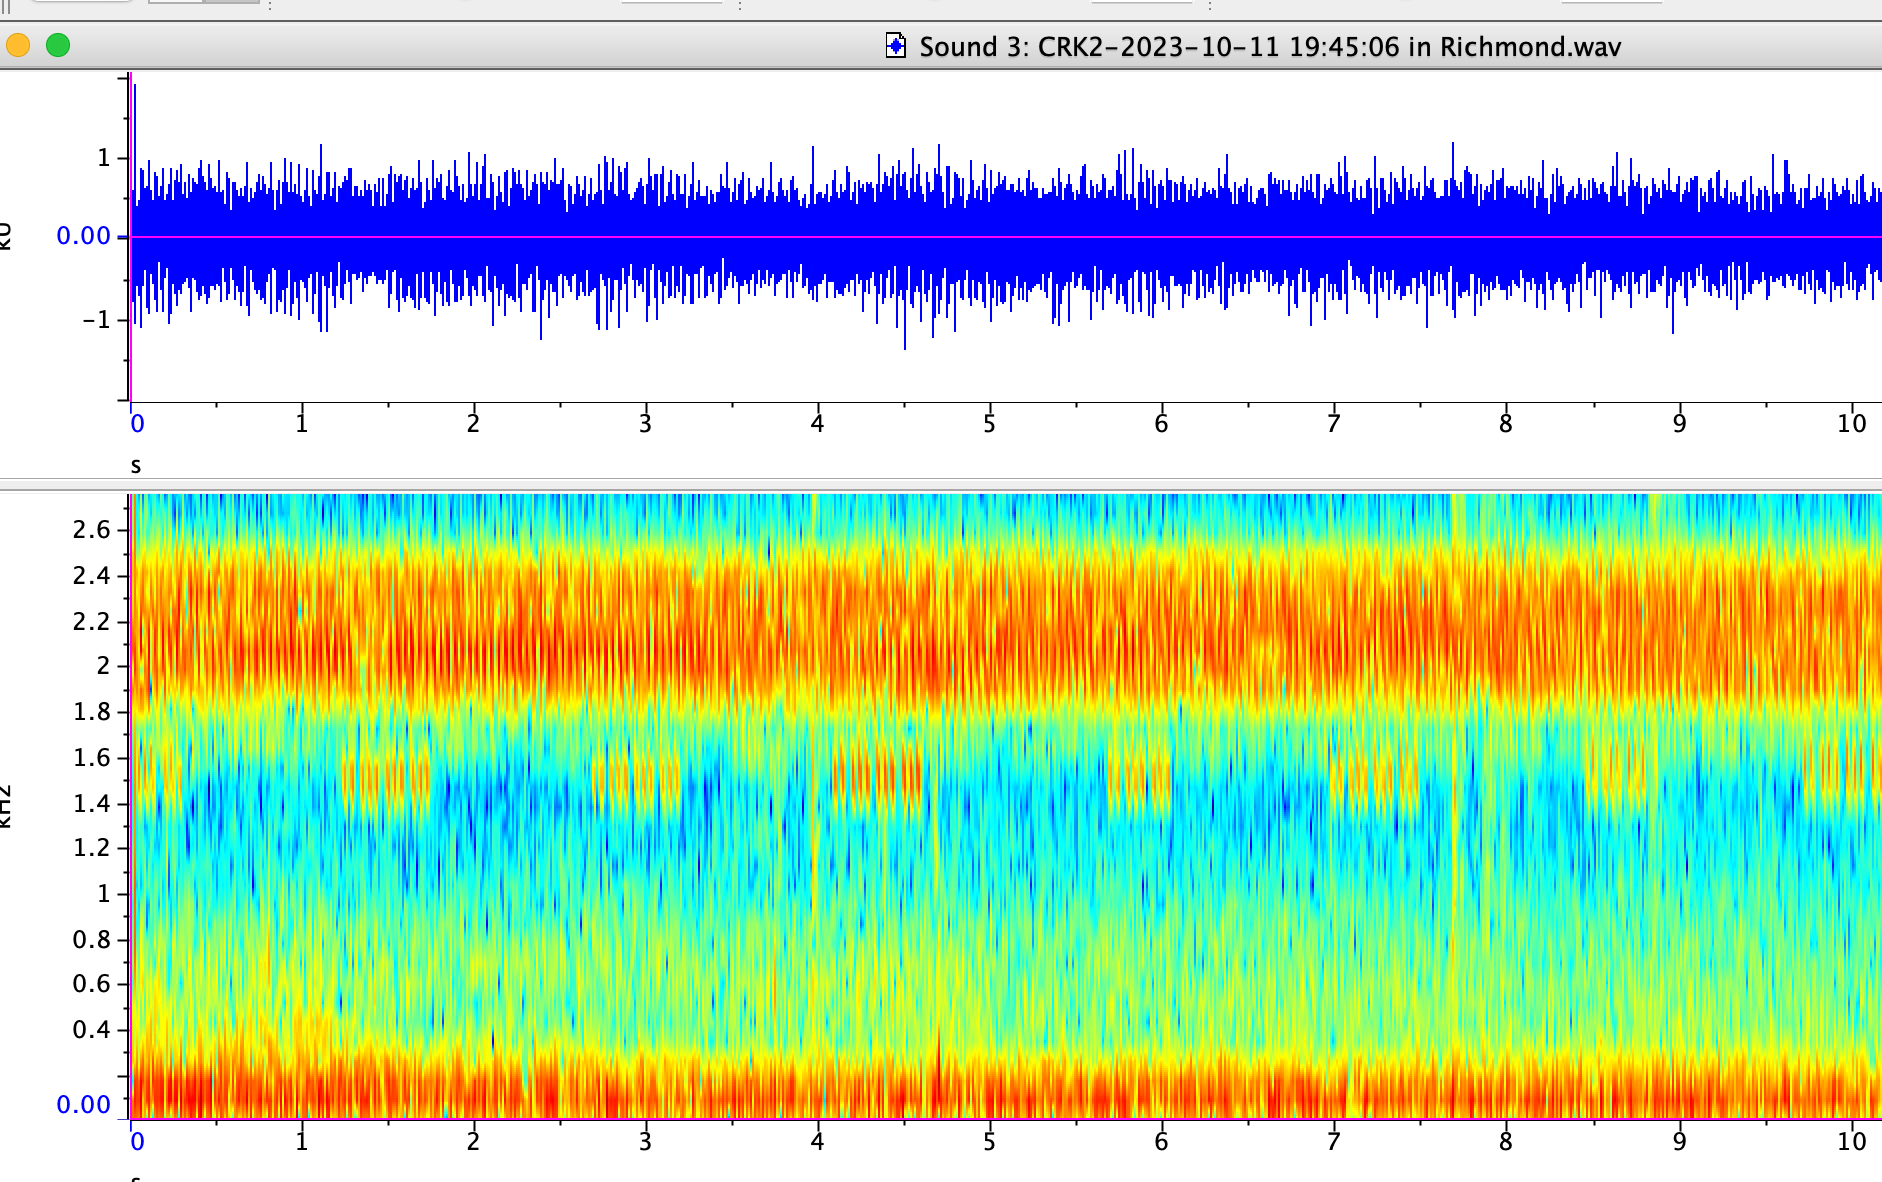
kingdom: Animalia
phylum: Arthropoda
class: Insecta
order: Orthoptera
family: Gryllidae
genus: Oecanthus
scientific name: Oecanthus fultoni
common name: Snowy tree cricket
